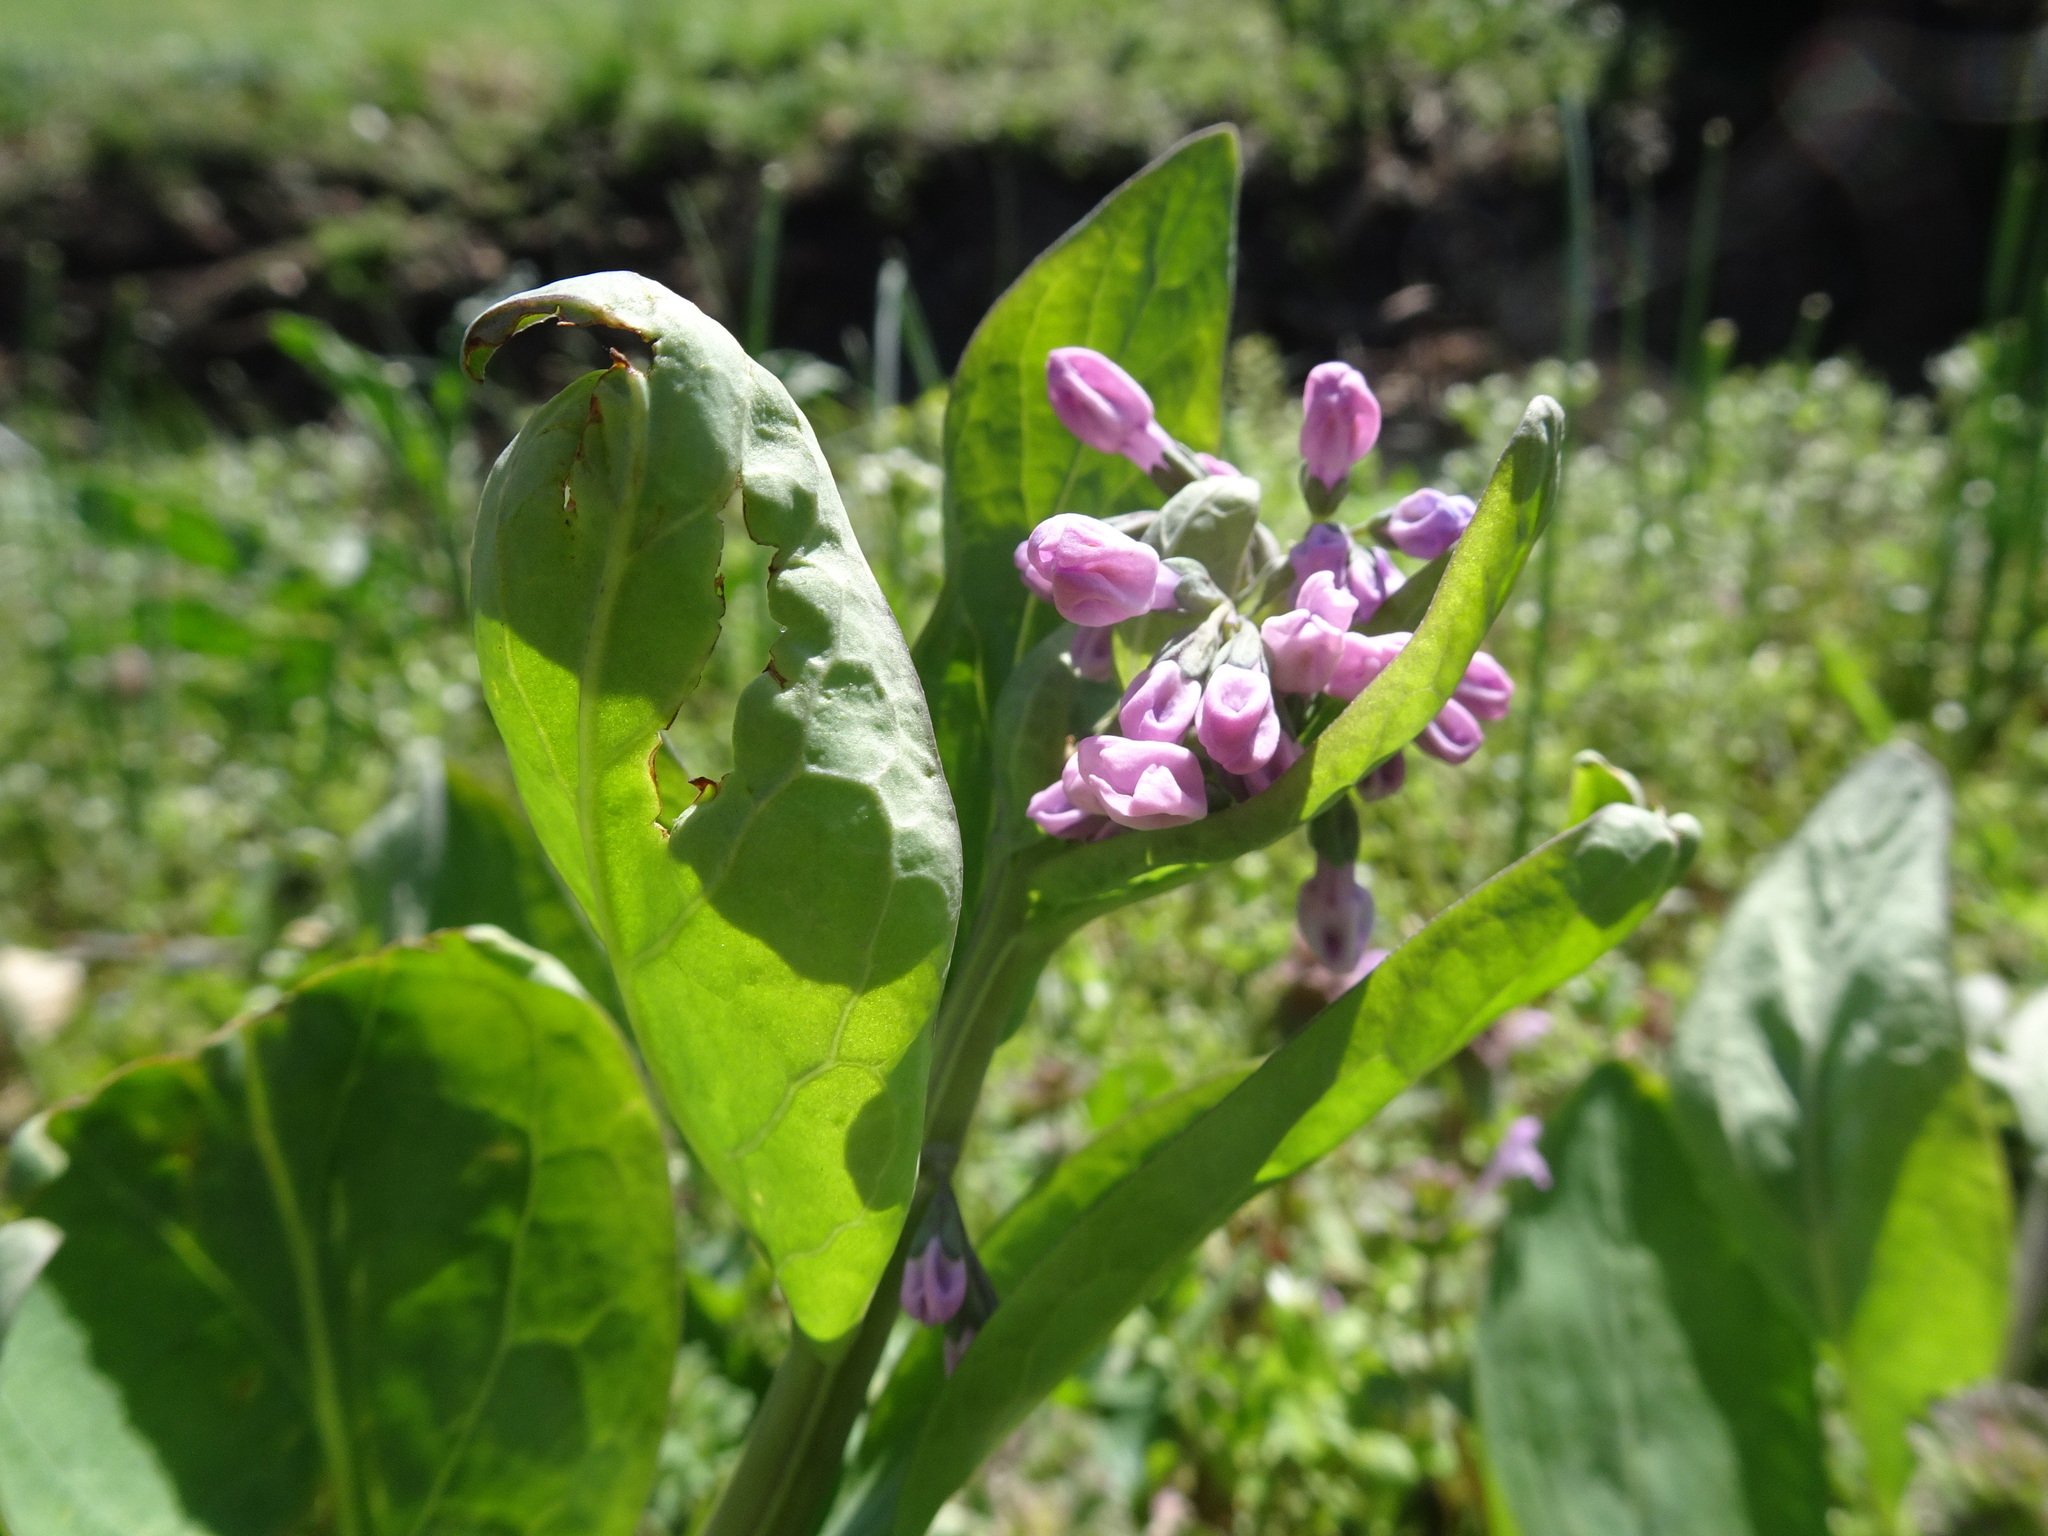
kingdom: Plantae
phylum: Tracheophyta
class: Magnoliopsida
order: Boraginales
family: Boraginaceae
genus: Mertensia
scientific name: Mertensia virginica
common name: Virginia bluebells
